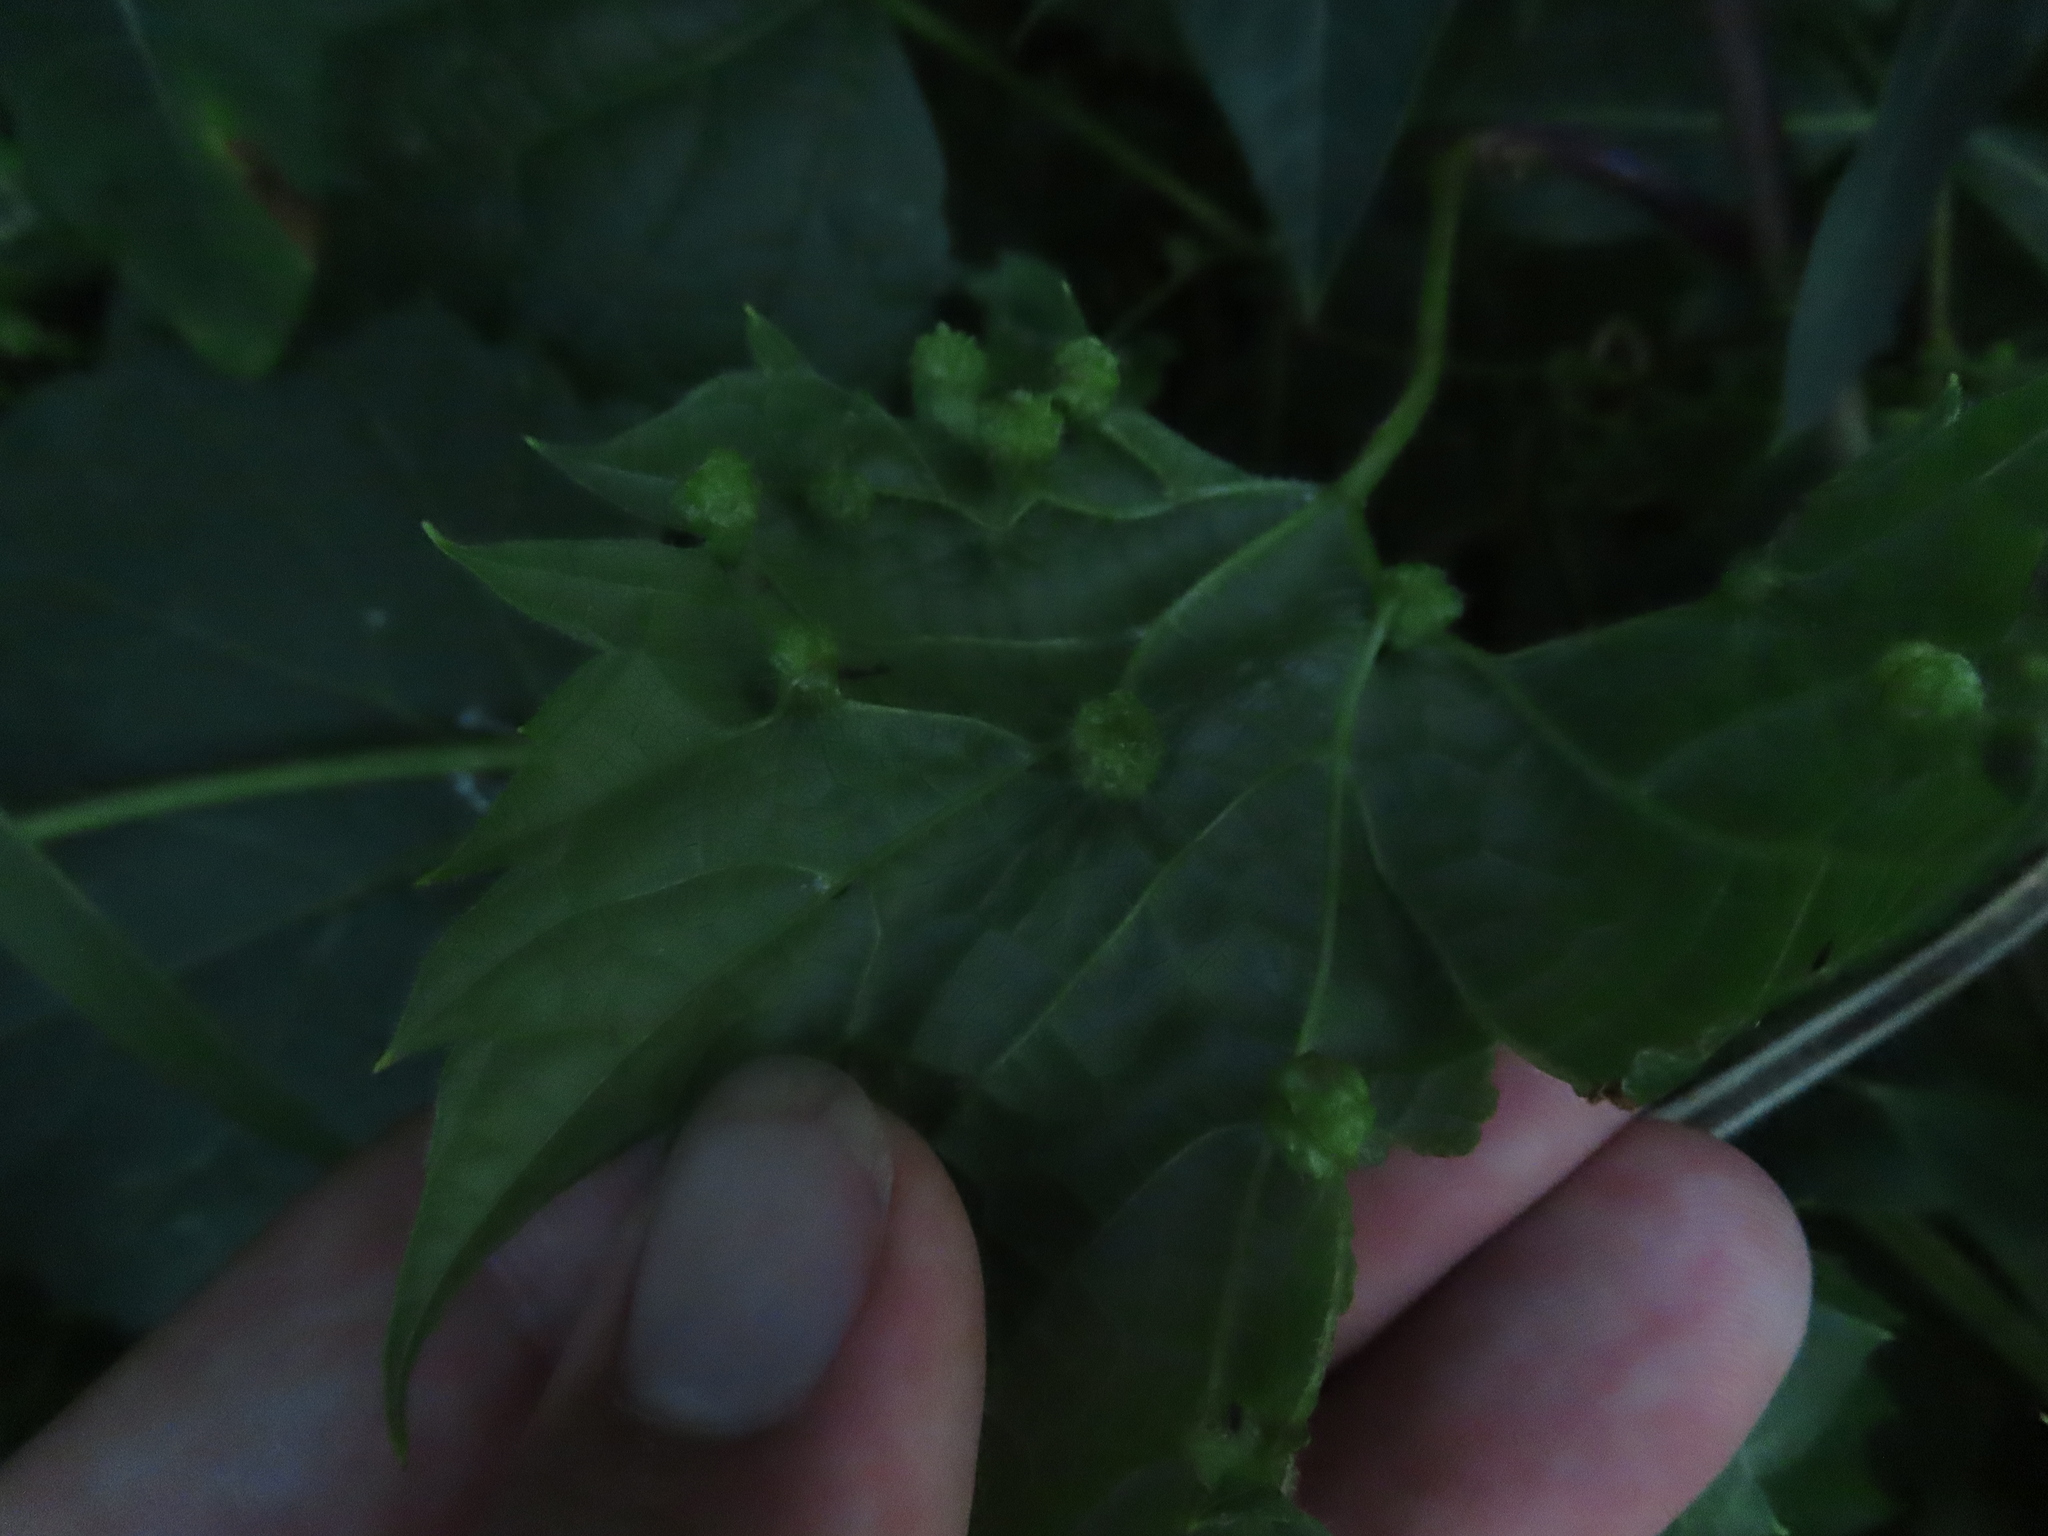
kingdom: Animalia
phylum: Arthropoda
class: Insecta
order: Hemiptera
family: Phylloxeridae
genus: Daktulosphaira
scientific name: Daktulosphaira vitifoliae
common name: Grape phylloxera
